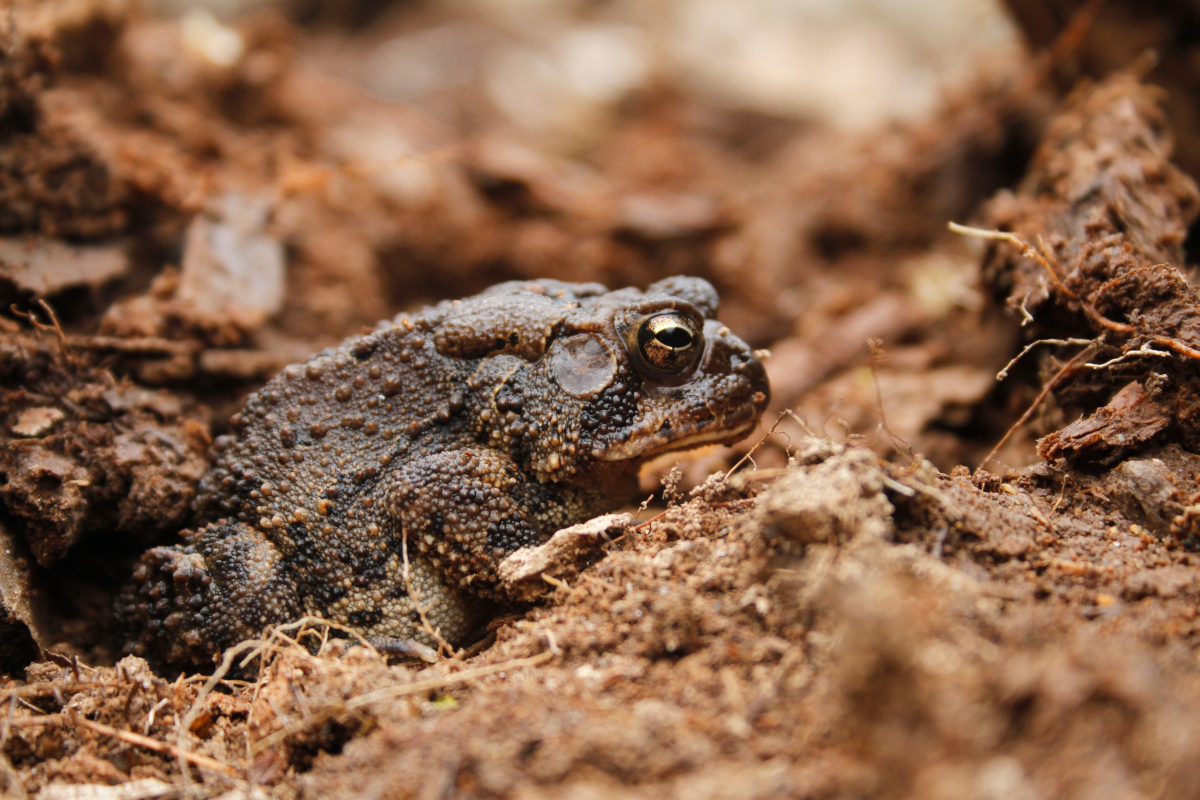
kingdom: Animalia
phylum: Chordata
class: Amphibia
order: Anura
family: Bufonidae
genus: Anaxyrus
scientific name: Anaxyrus americanus
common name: American toad
